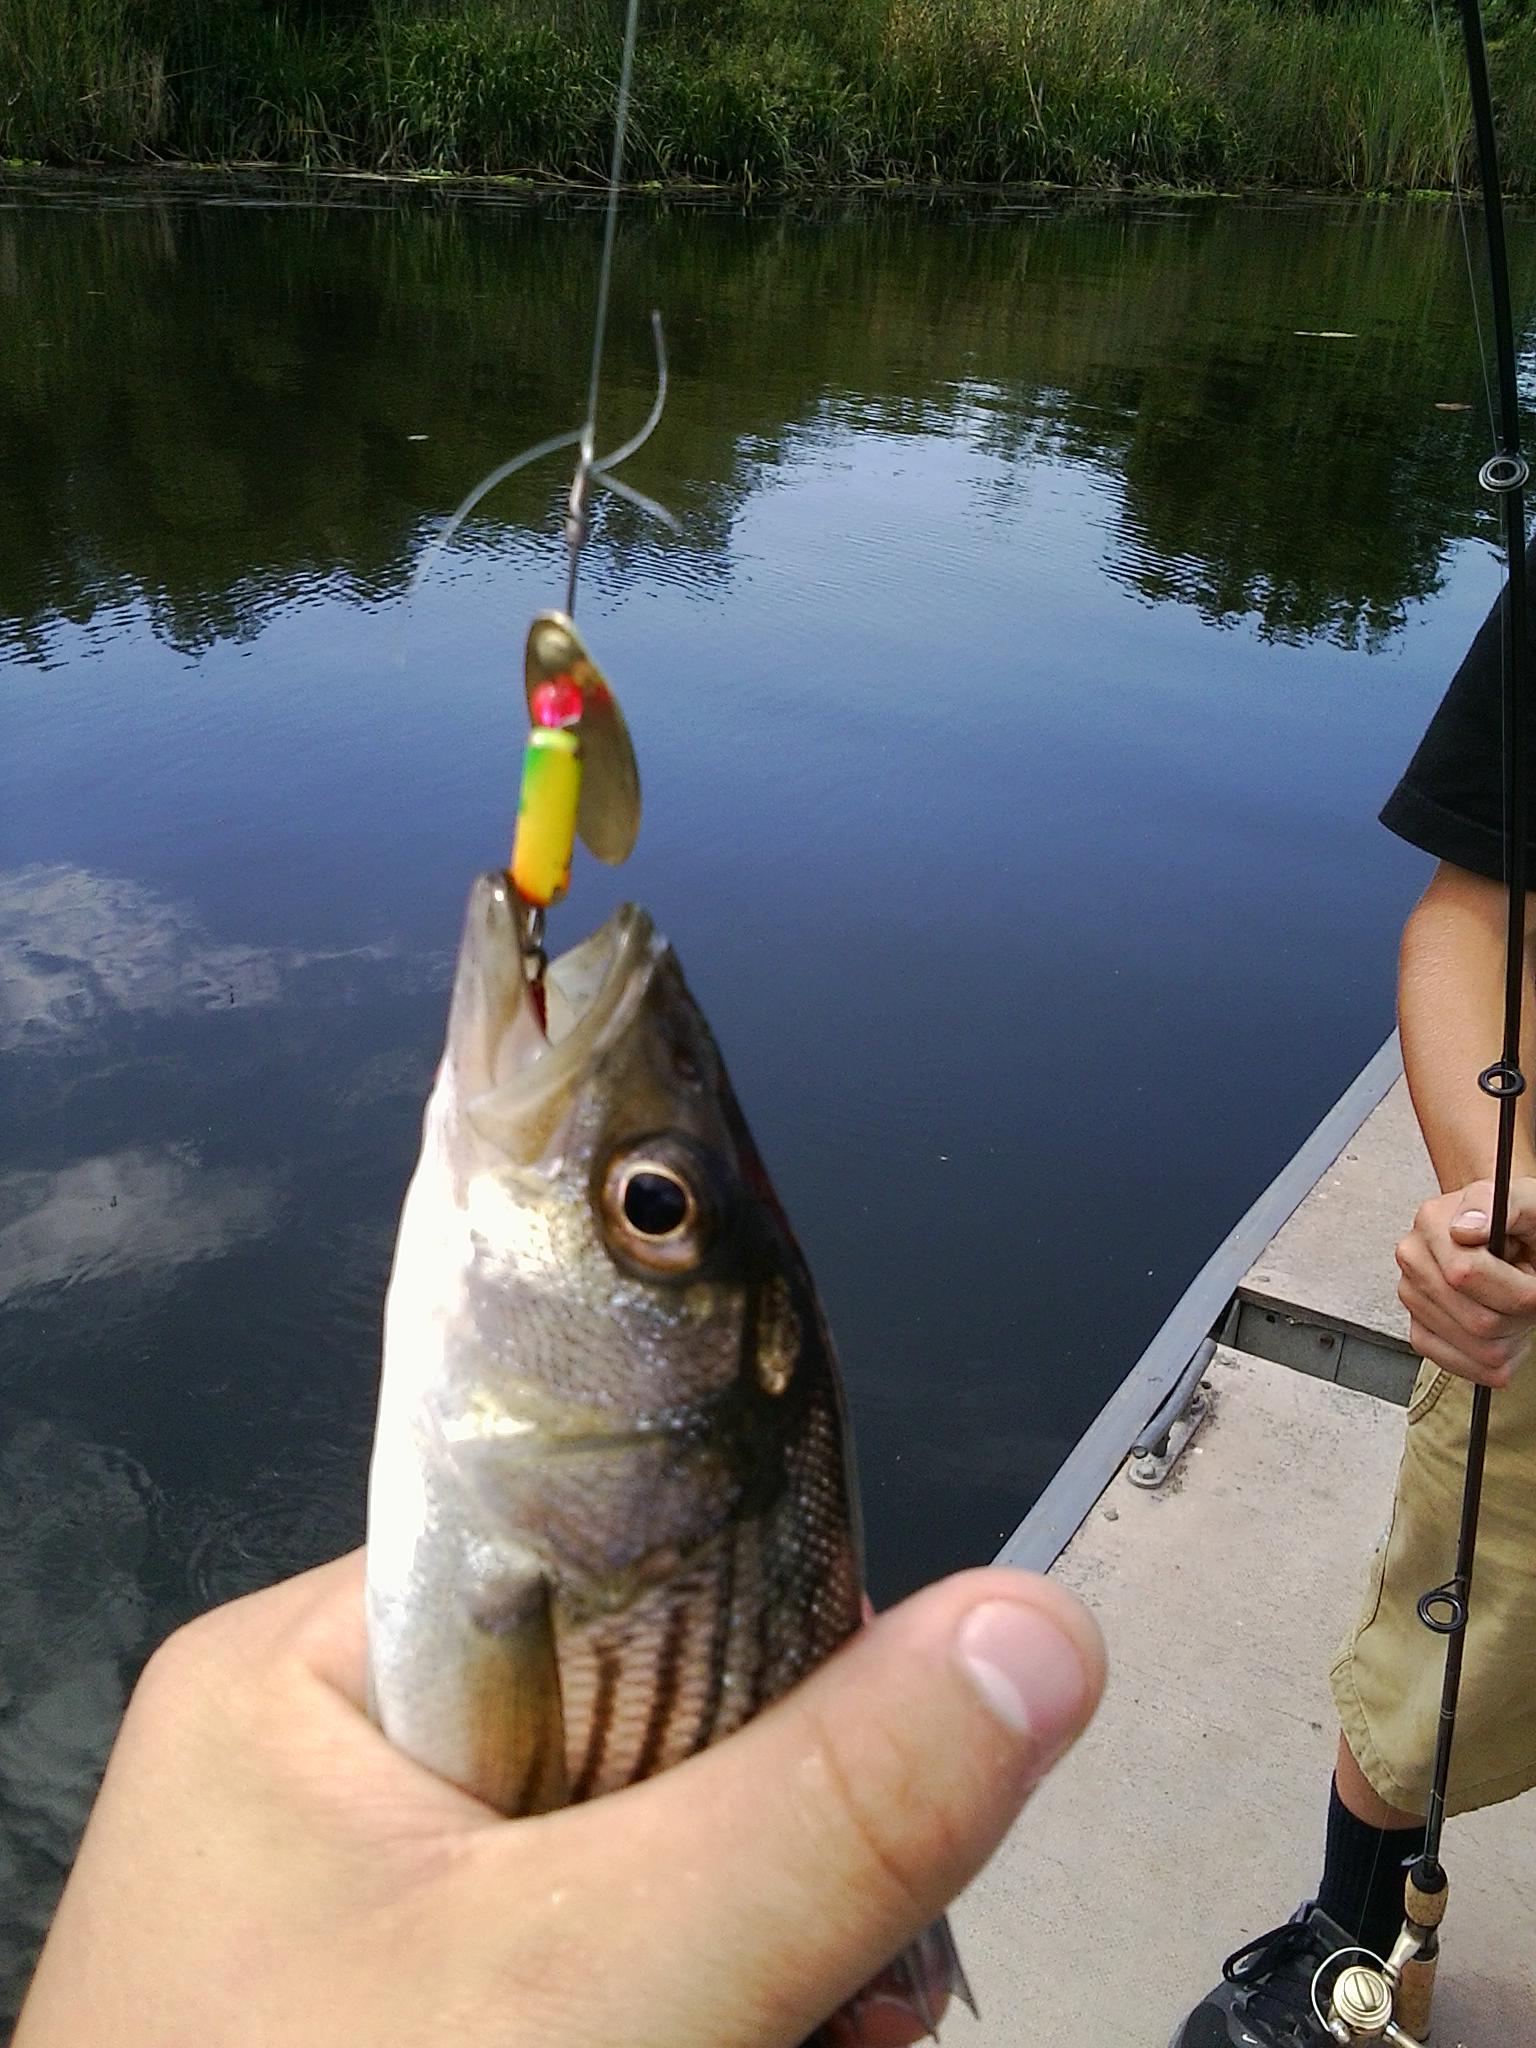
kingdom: Animalia
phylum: Chordata
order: Perciformes
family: Moronidae
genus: Morone
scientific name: Morone saxatilis
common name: Striped bass
